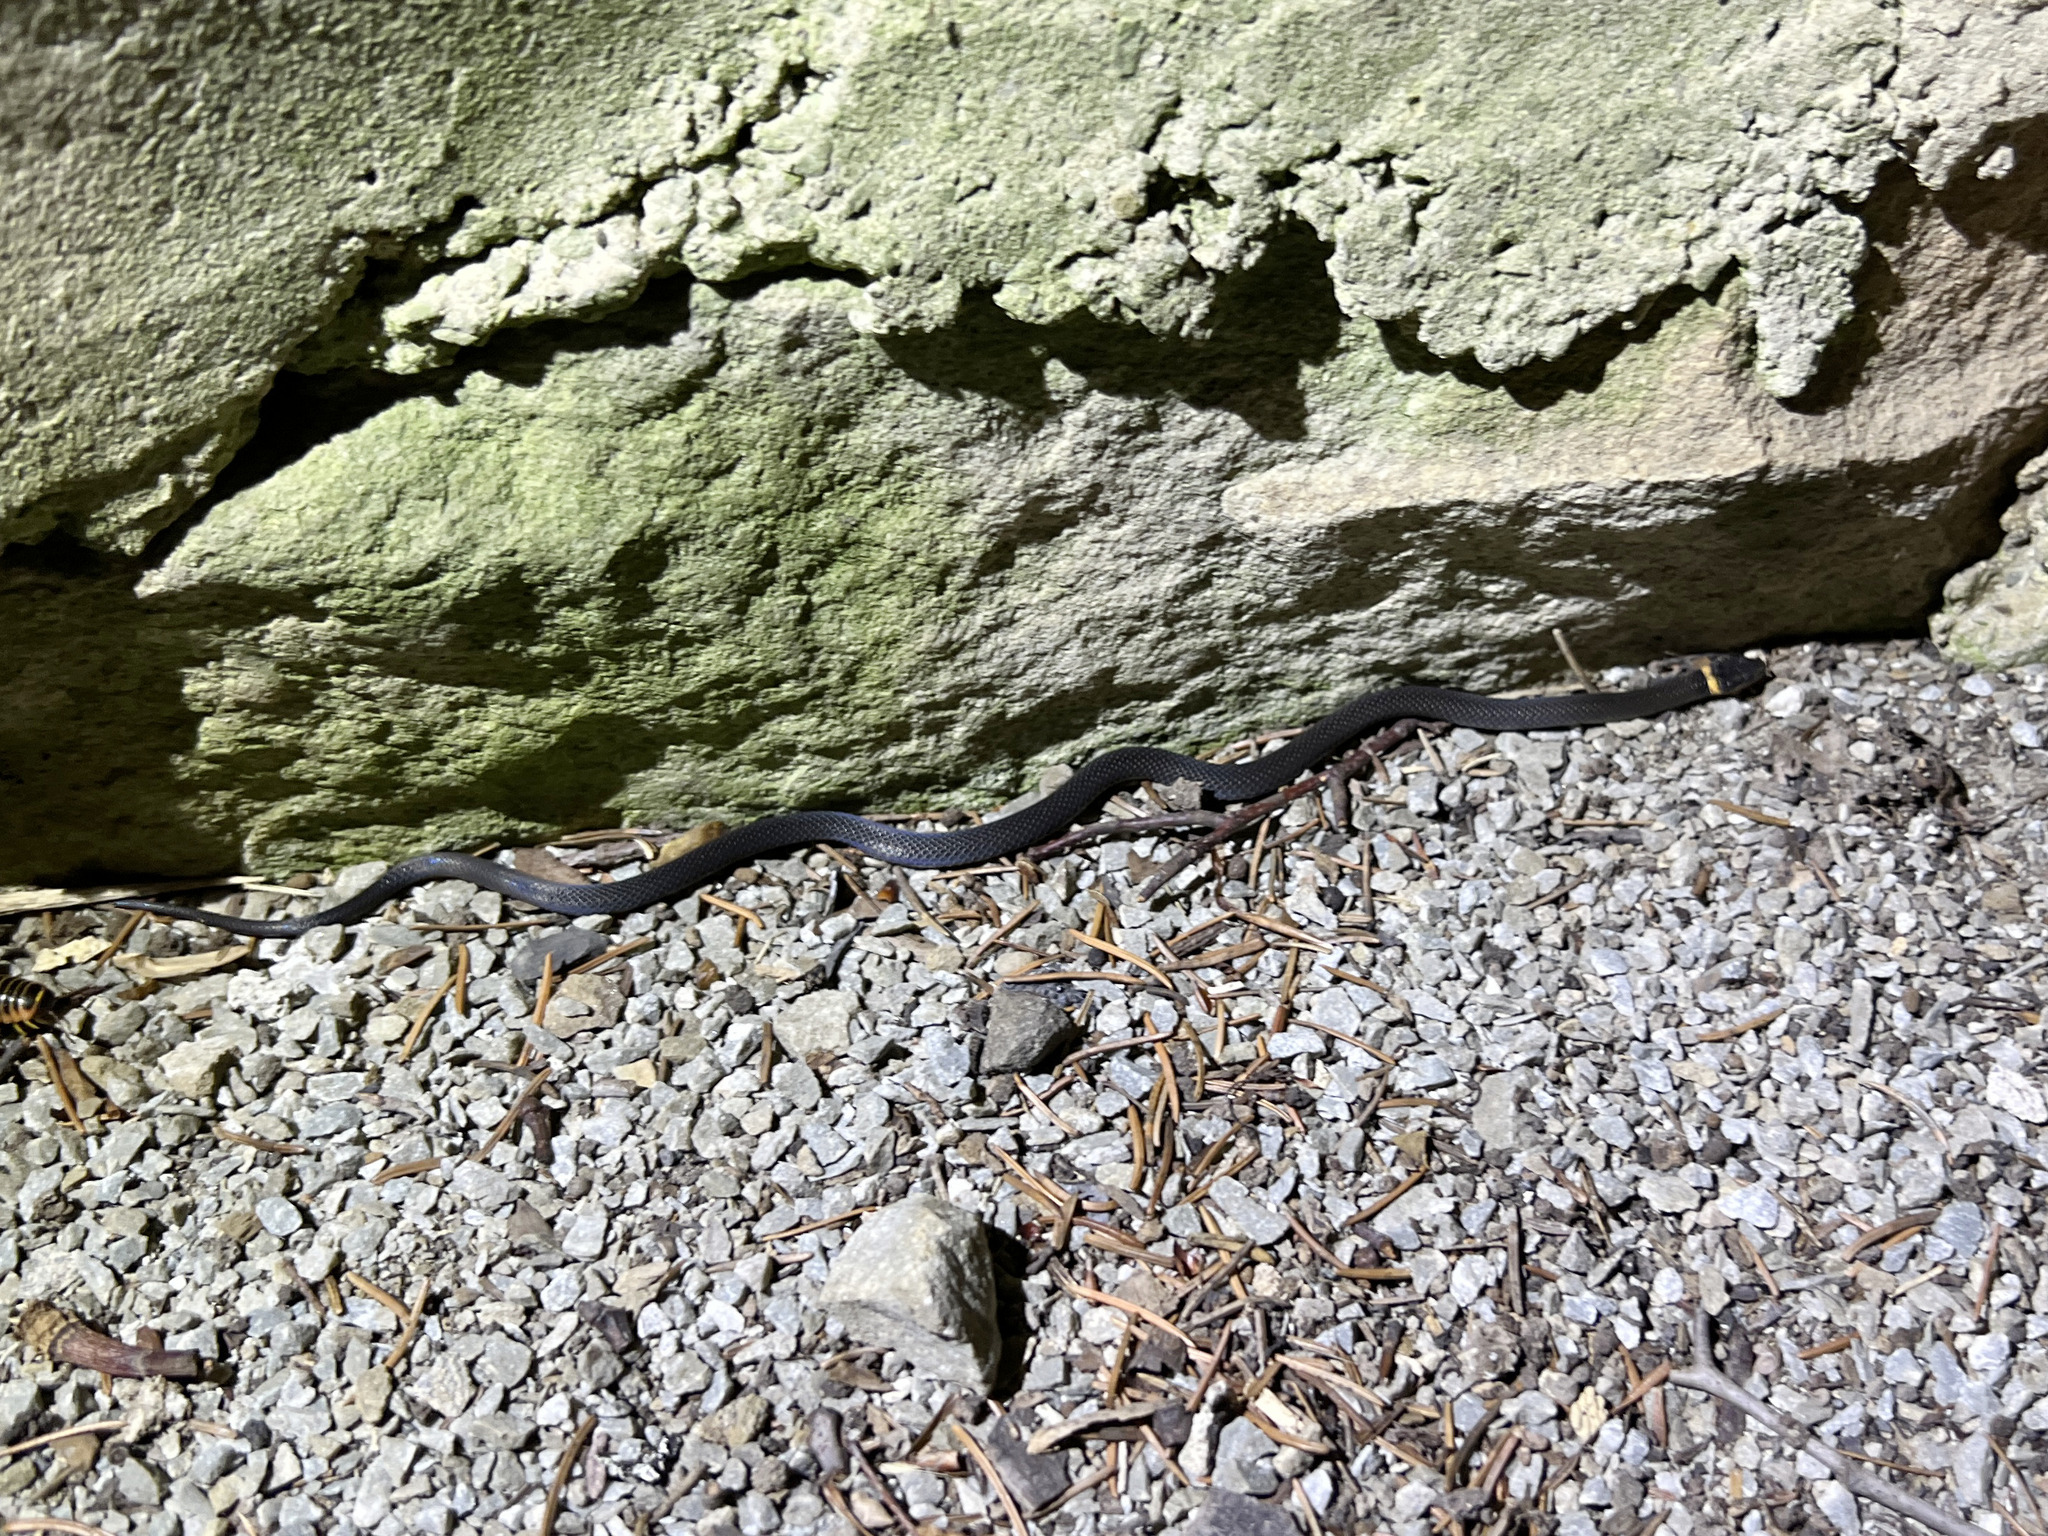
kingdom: Animalia
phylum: Chordata
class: Squamata
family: Colubridae
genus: Diadophis
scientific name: Diadophis punctatus
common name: Ringneck snake
